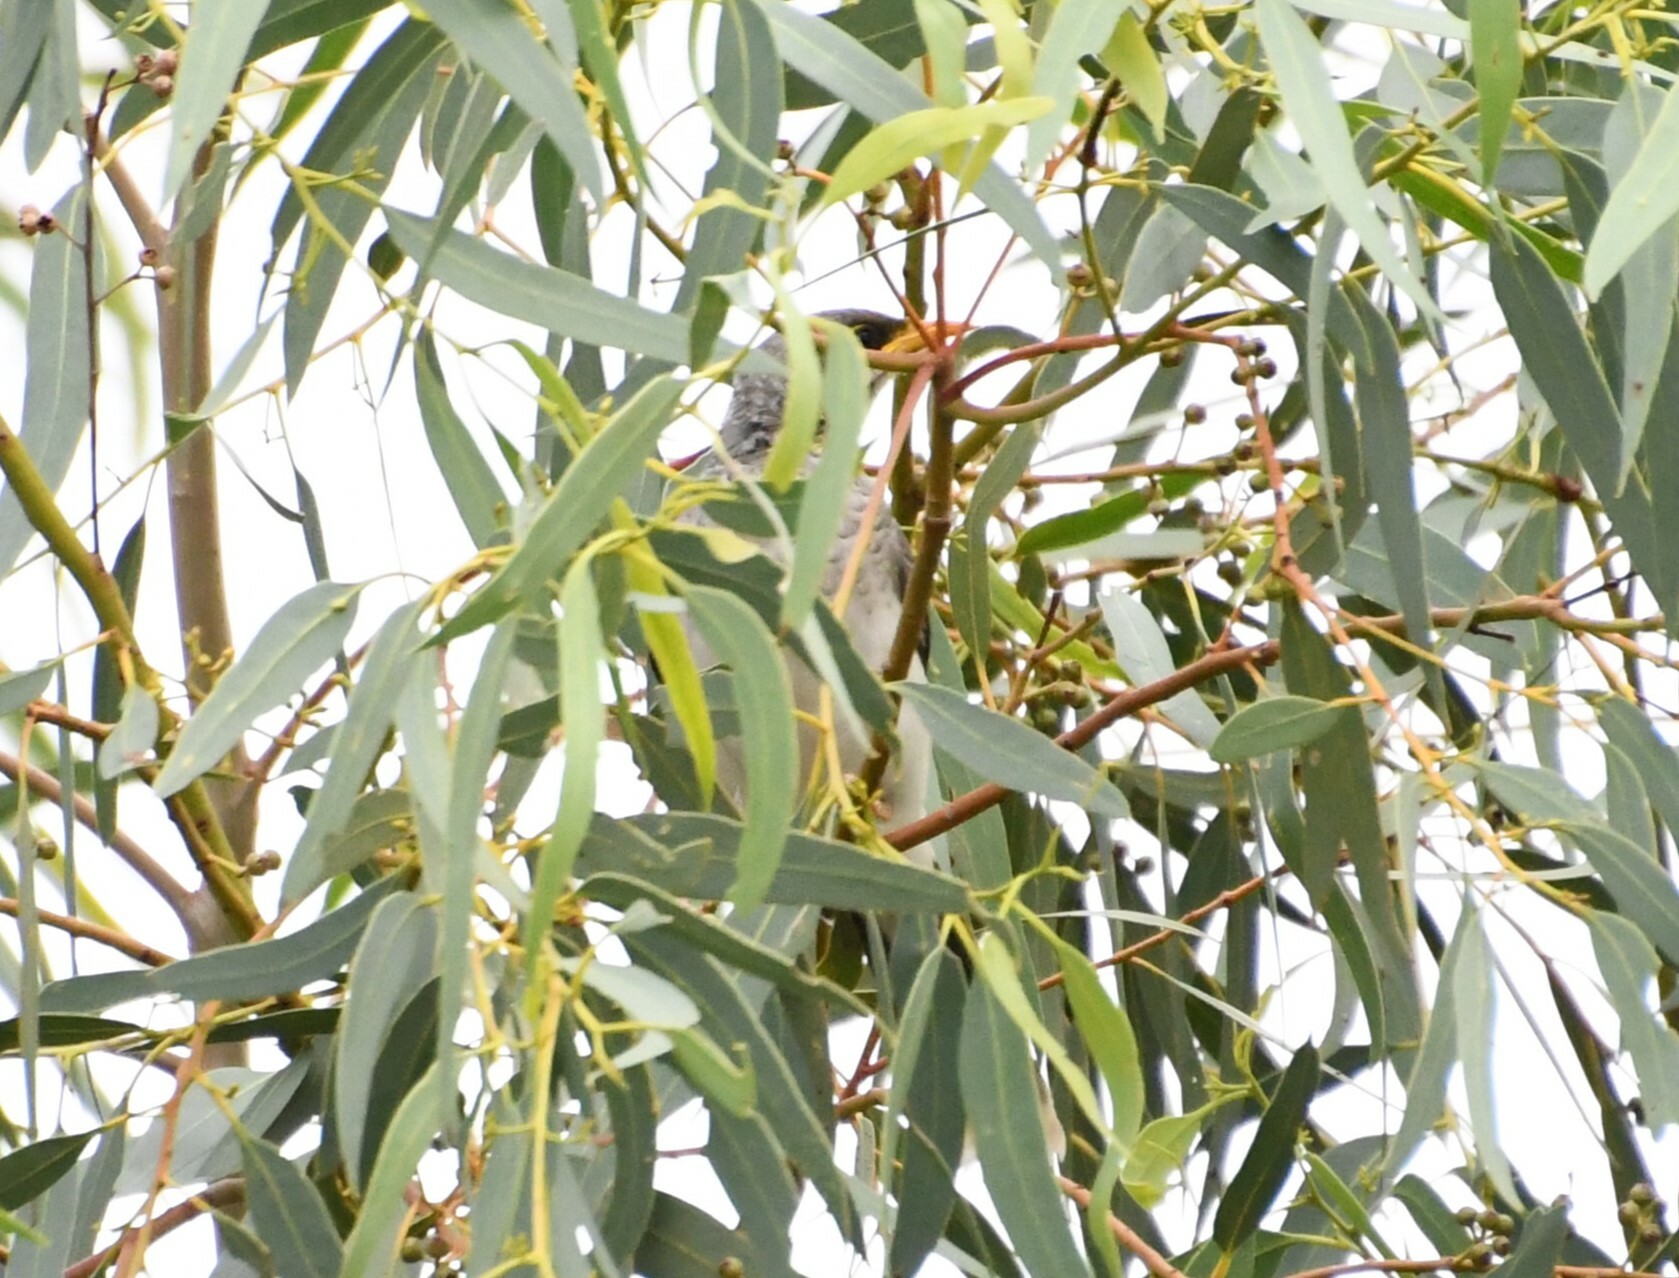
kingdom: Animalia
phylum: Chordata
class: Aves
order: Passeriformes
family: Meliphagidae
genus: Manorina
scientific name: Manorina flavigula
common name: Yellow-throated miner
